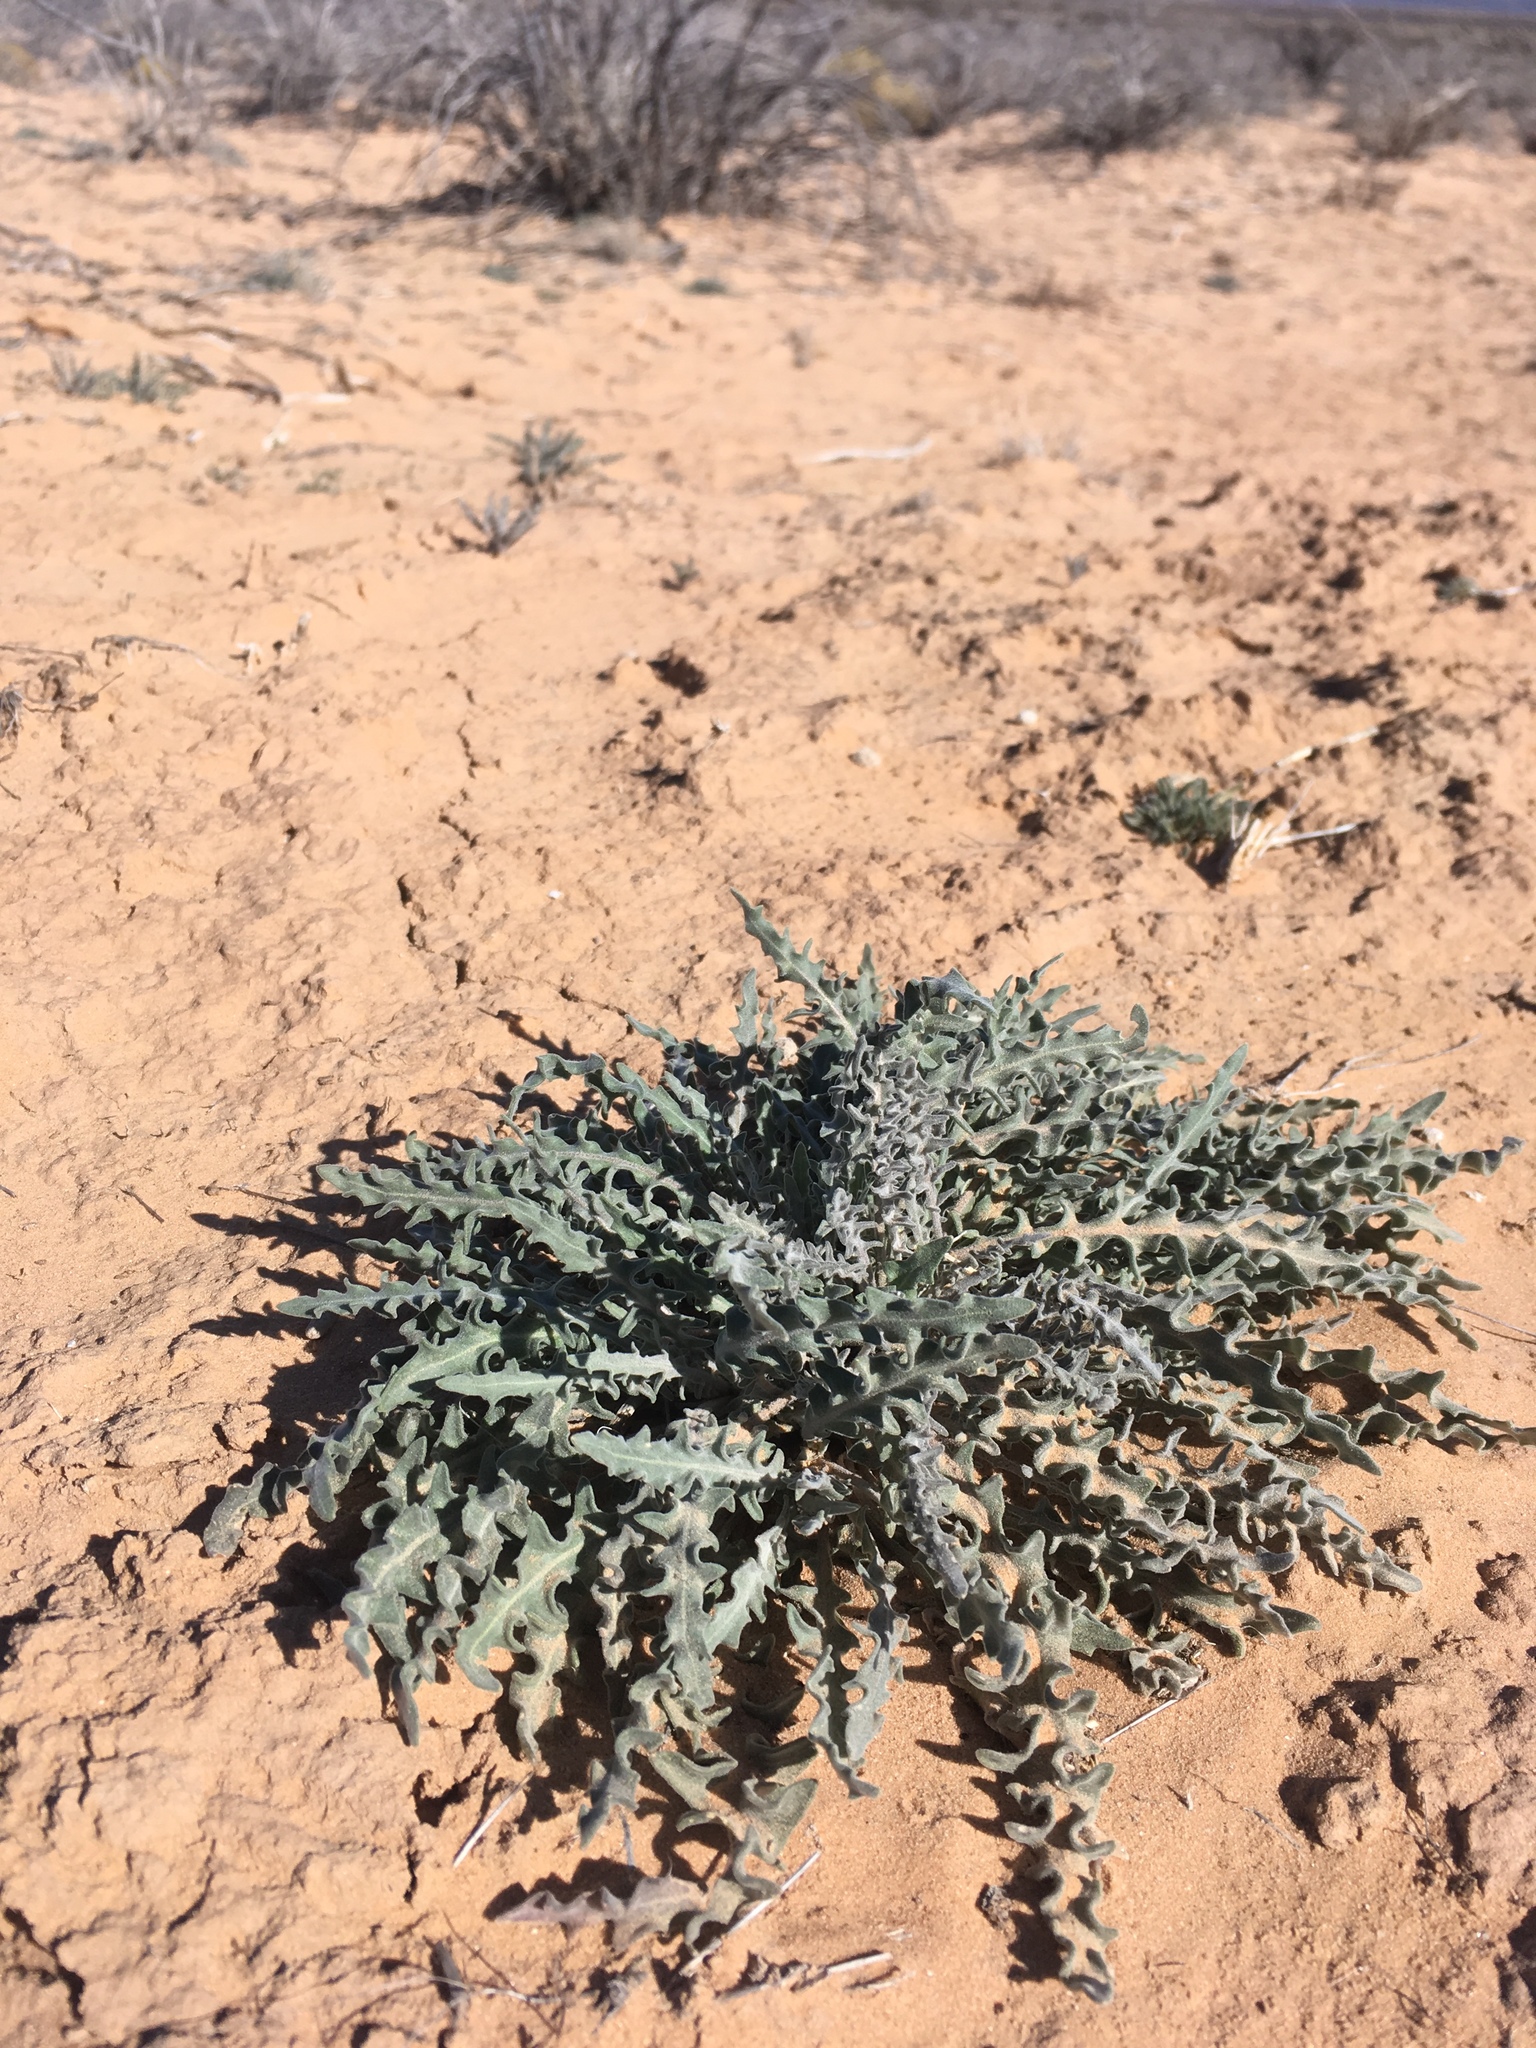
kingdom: Plantae
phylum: Tracheophyta
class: Magnoliopsida
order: Brassicales
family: Brassicaceae
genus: Dimorphocarpa
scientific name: Dimorphocarpa wislizenii
